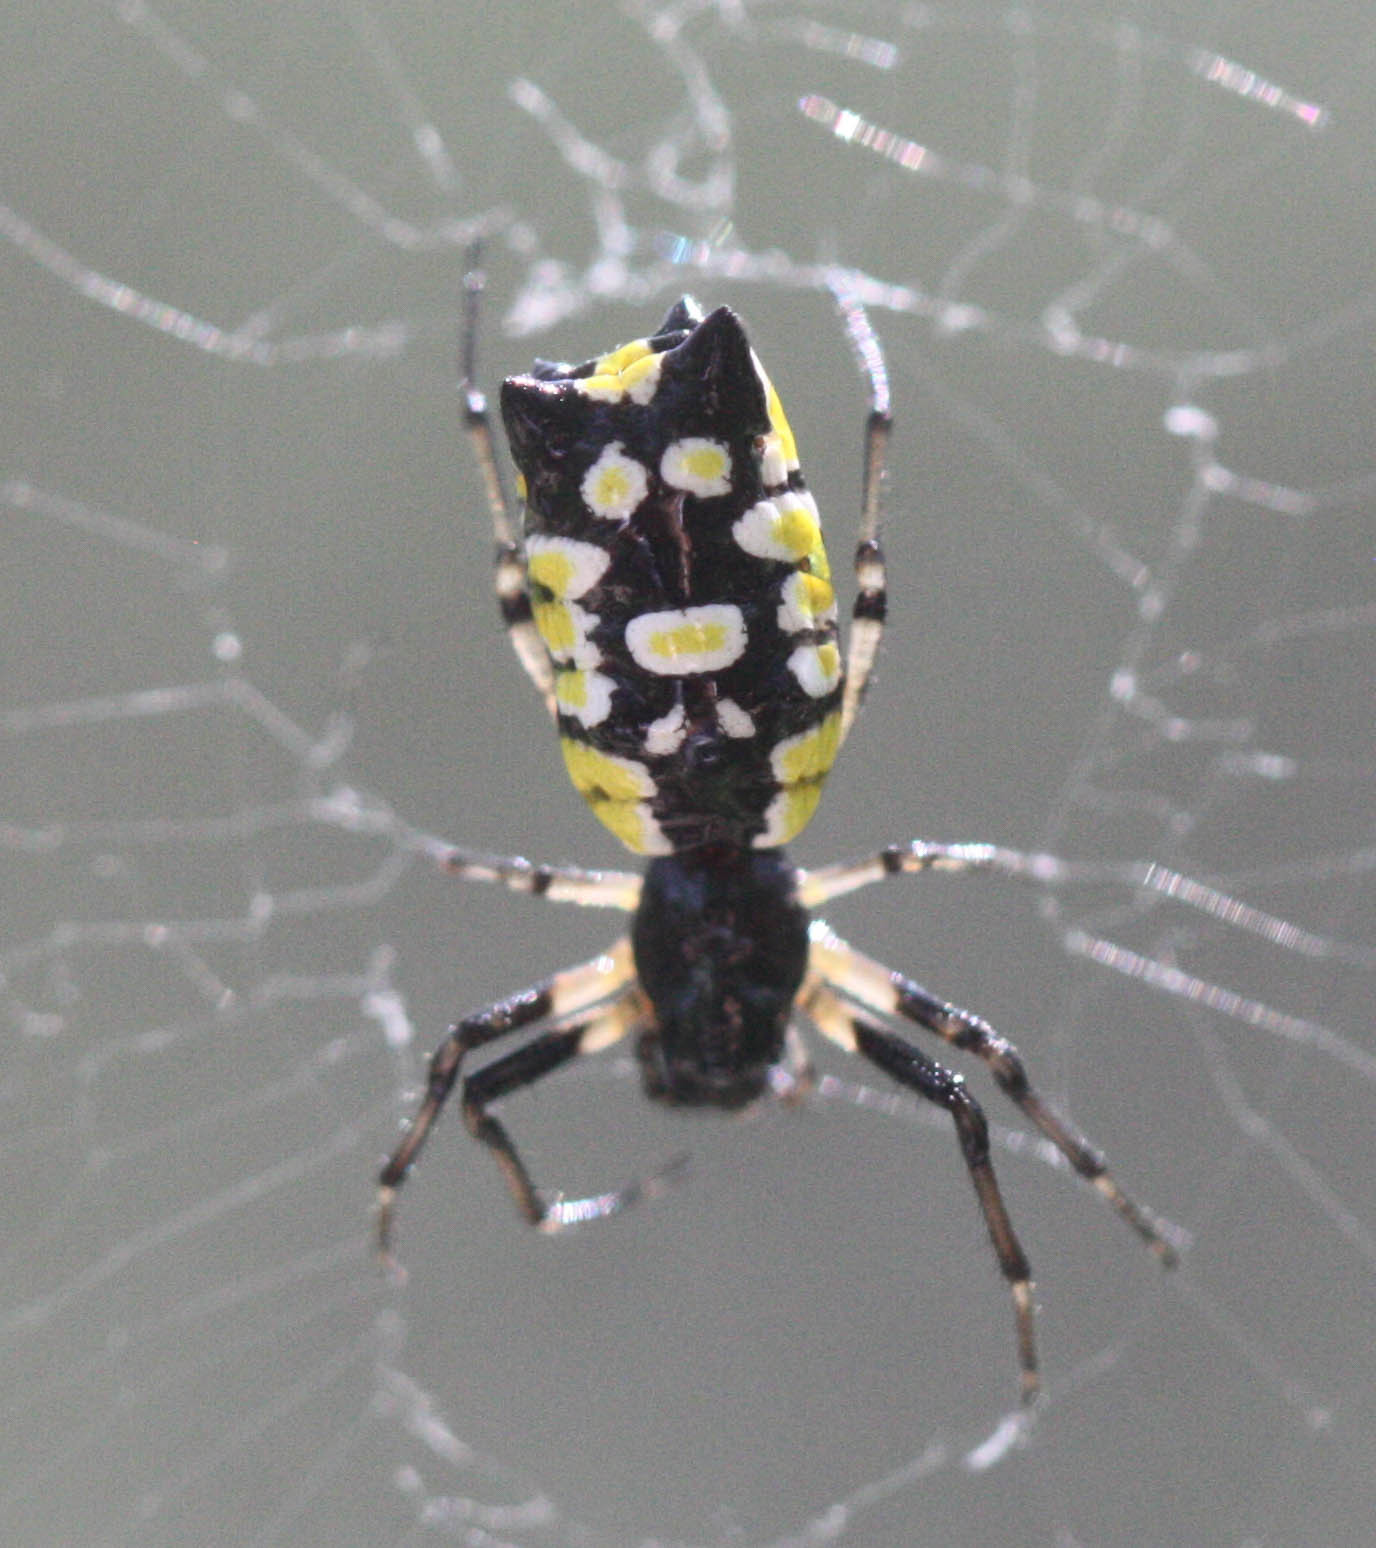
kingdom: Animalia
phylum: Arthropoda
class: Arachnida
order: Araneae
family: Araneidae
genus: Micrathena
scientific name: Micrathena funebris
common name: Orb weavers
